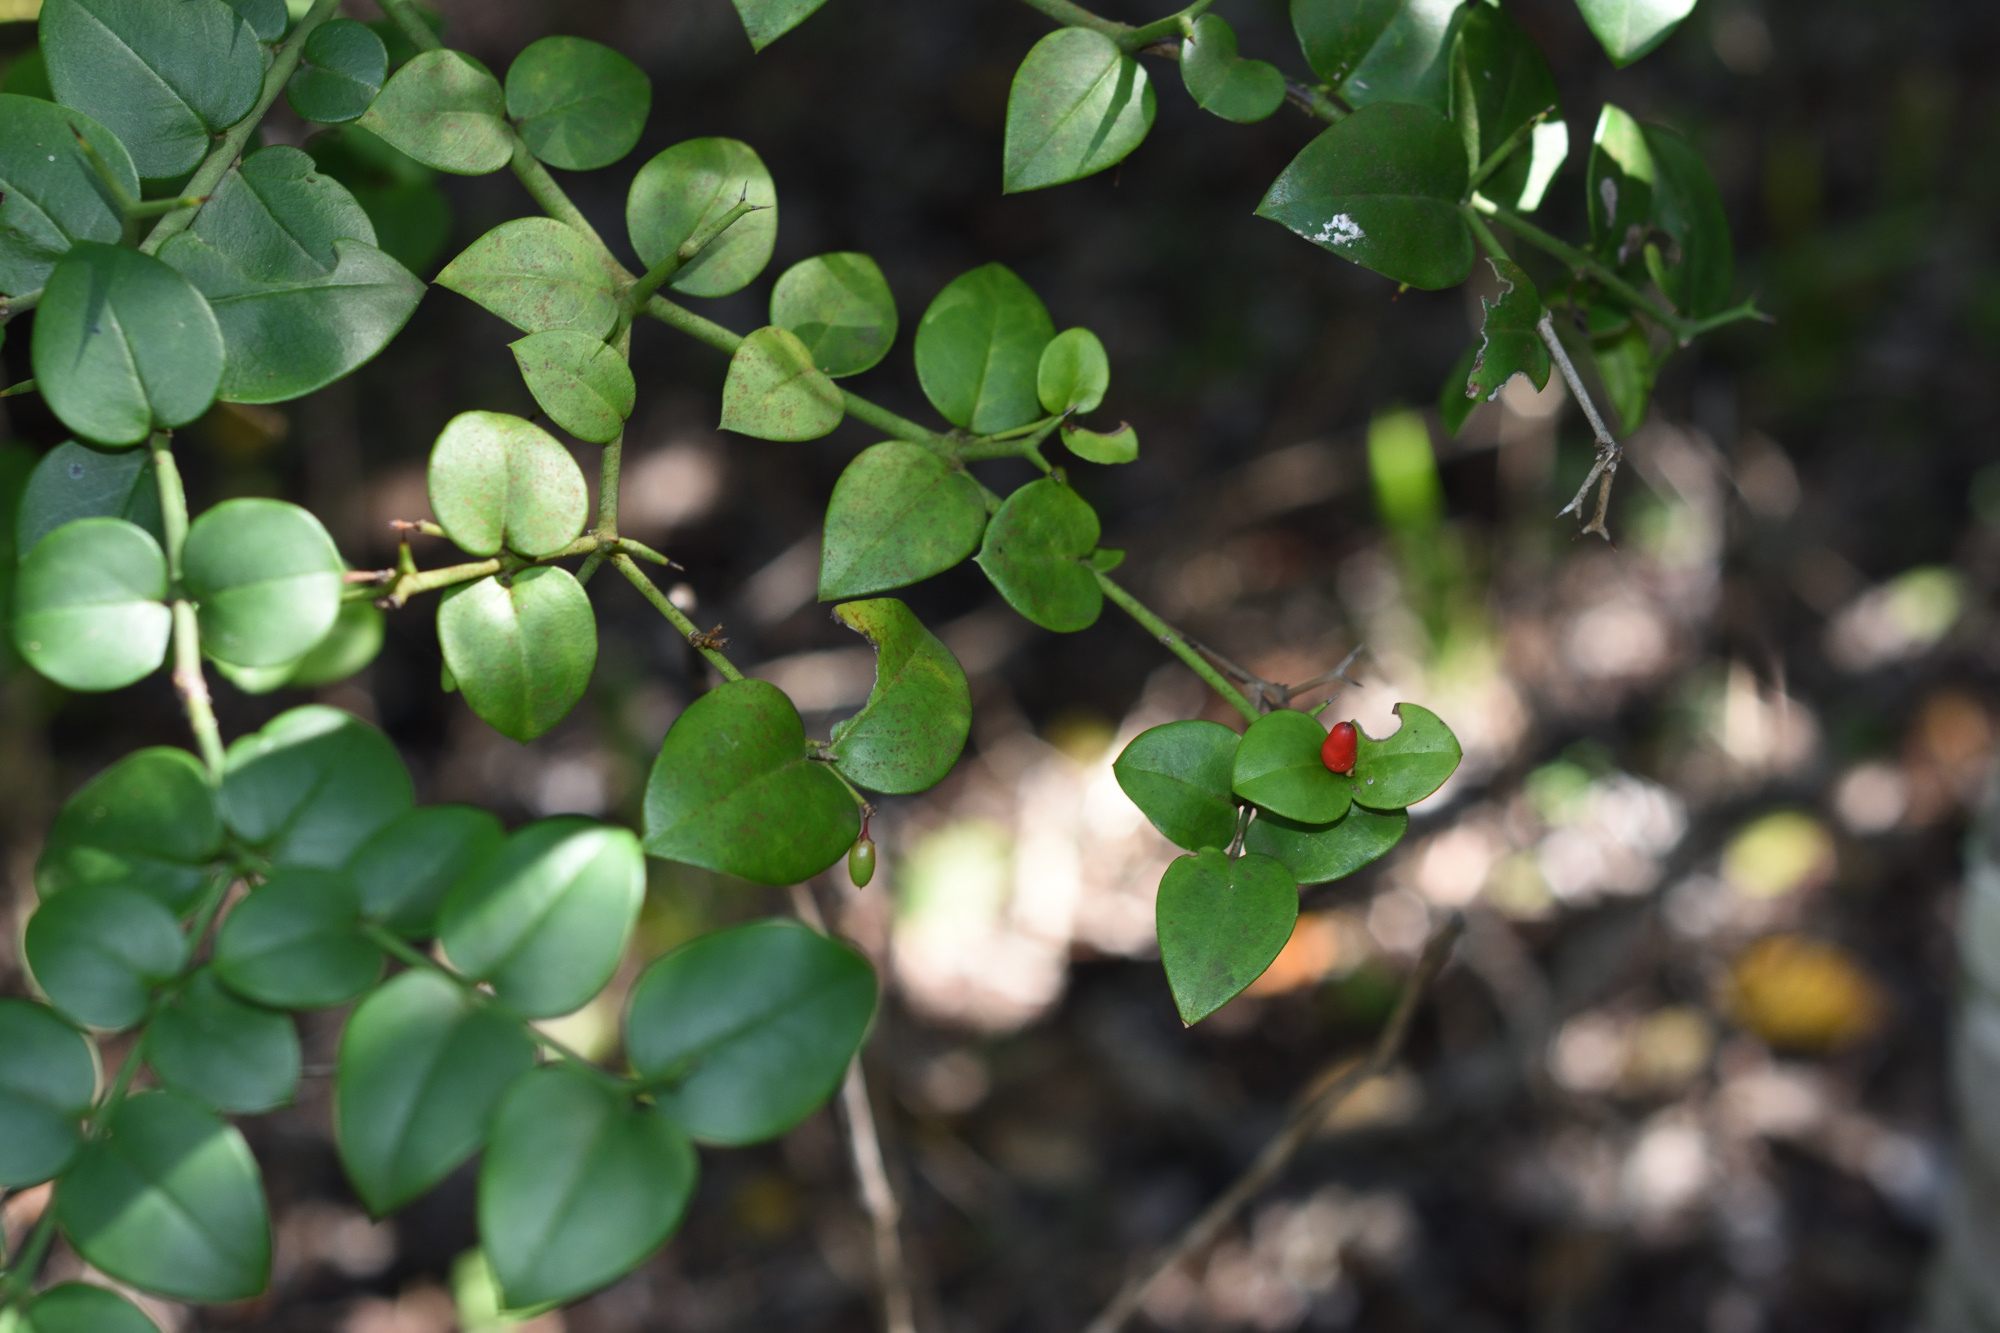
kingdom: Plantae
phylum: Tracheophyta
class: Magnoliopsida
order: Gentianales
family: Apocynaceae
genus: Carissa
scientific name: Carissa bispinosa
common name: Forest num-num
